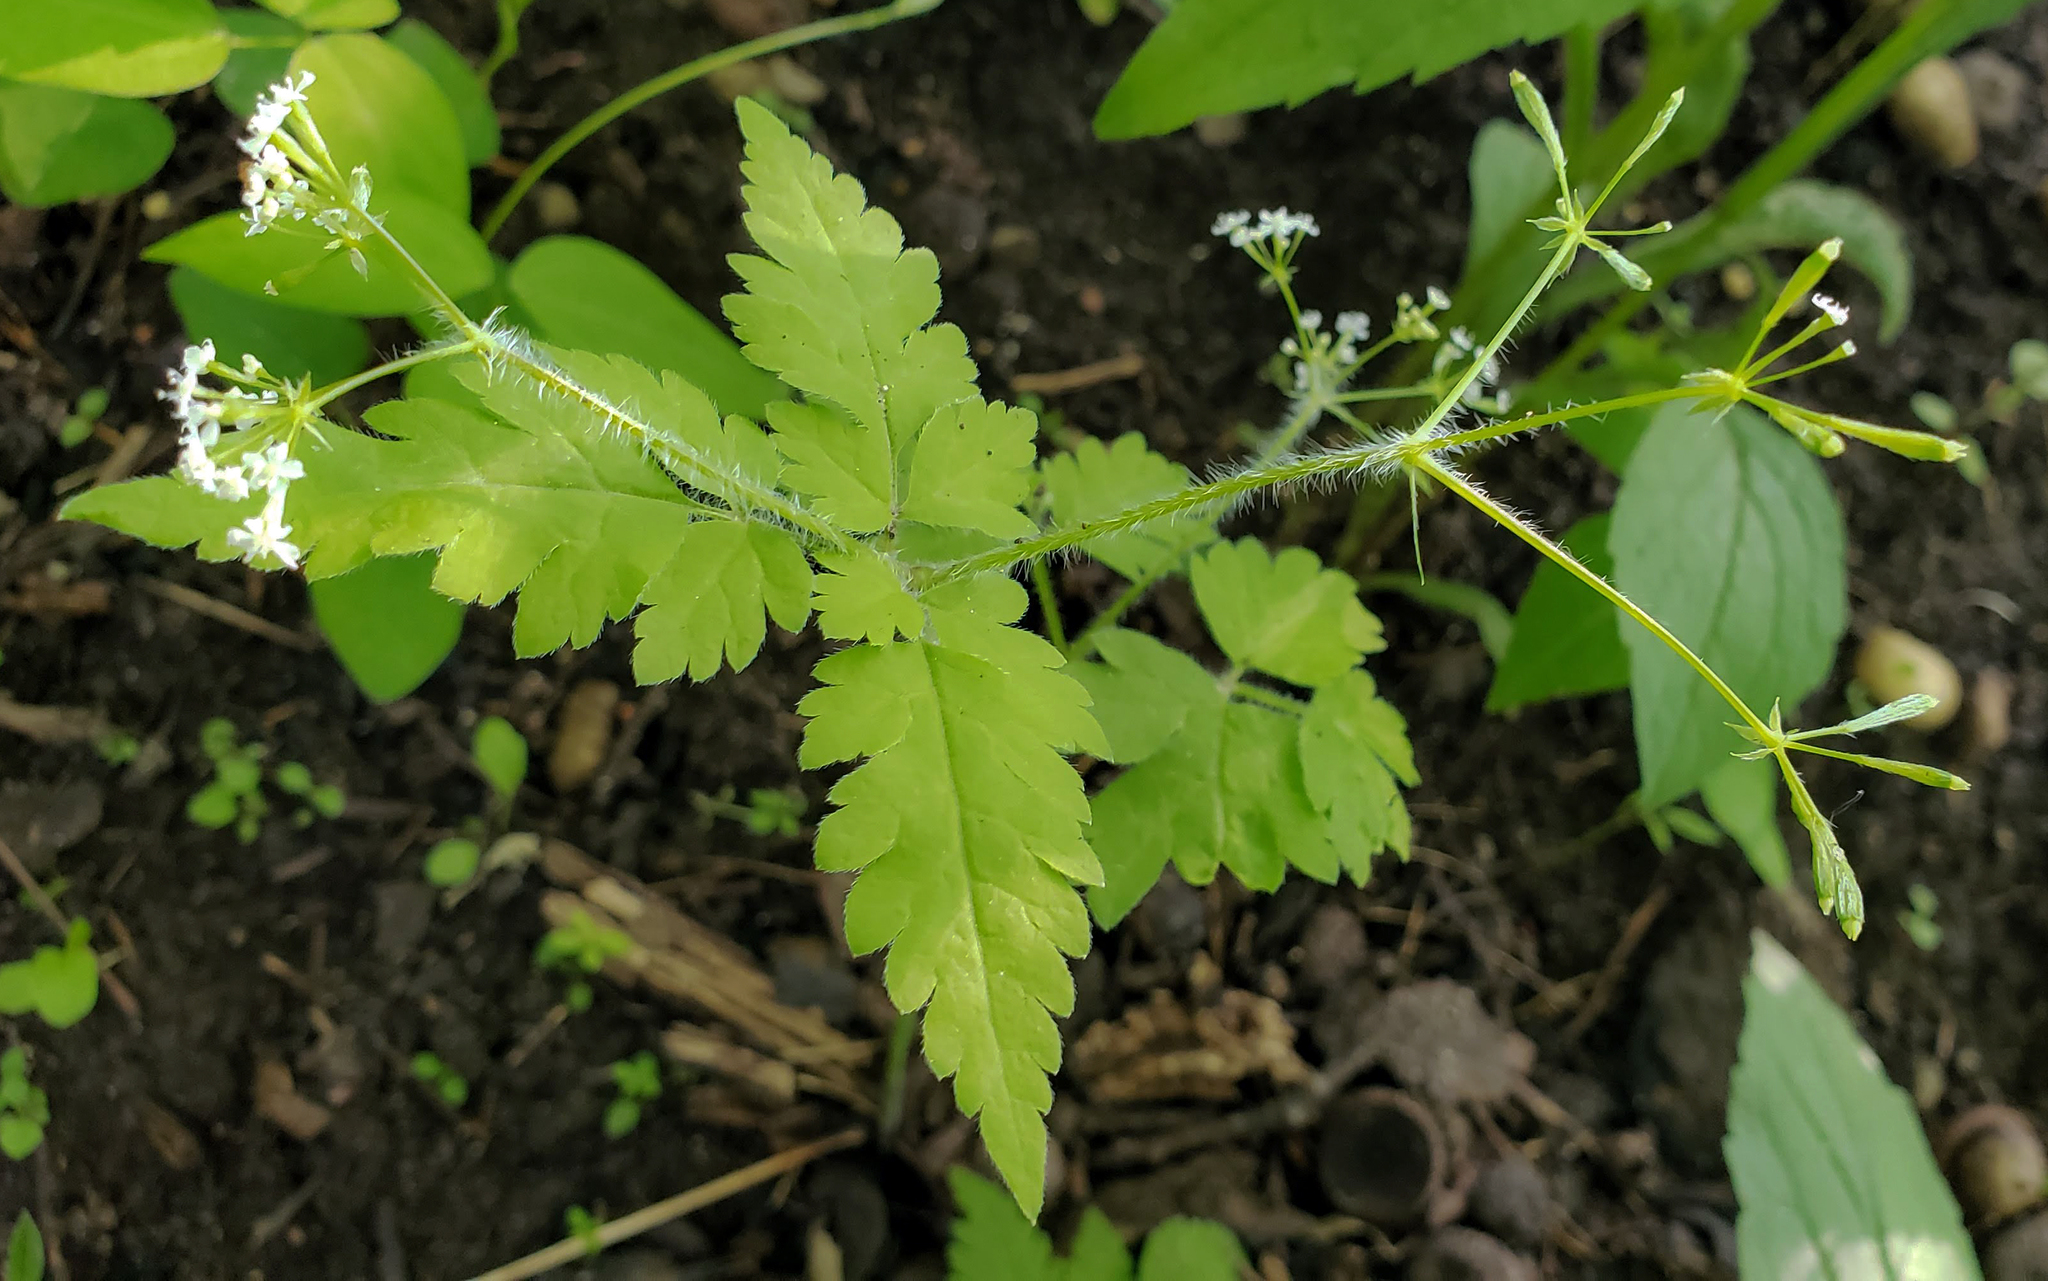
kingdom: Plantae
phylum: Tracheophyta
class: Magnoliopsida
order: Apiales
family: Apiaceae
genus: Osmorhiza
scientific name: Osmorhiza claytonii
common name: Hairy sweet cicely
